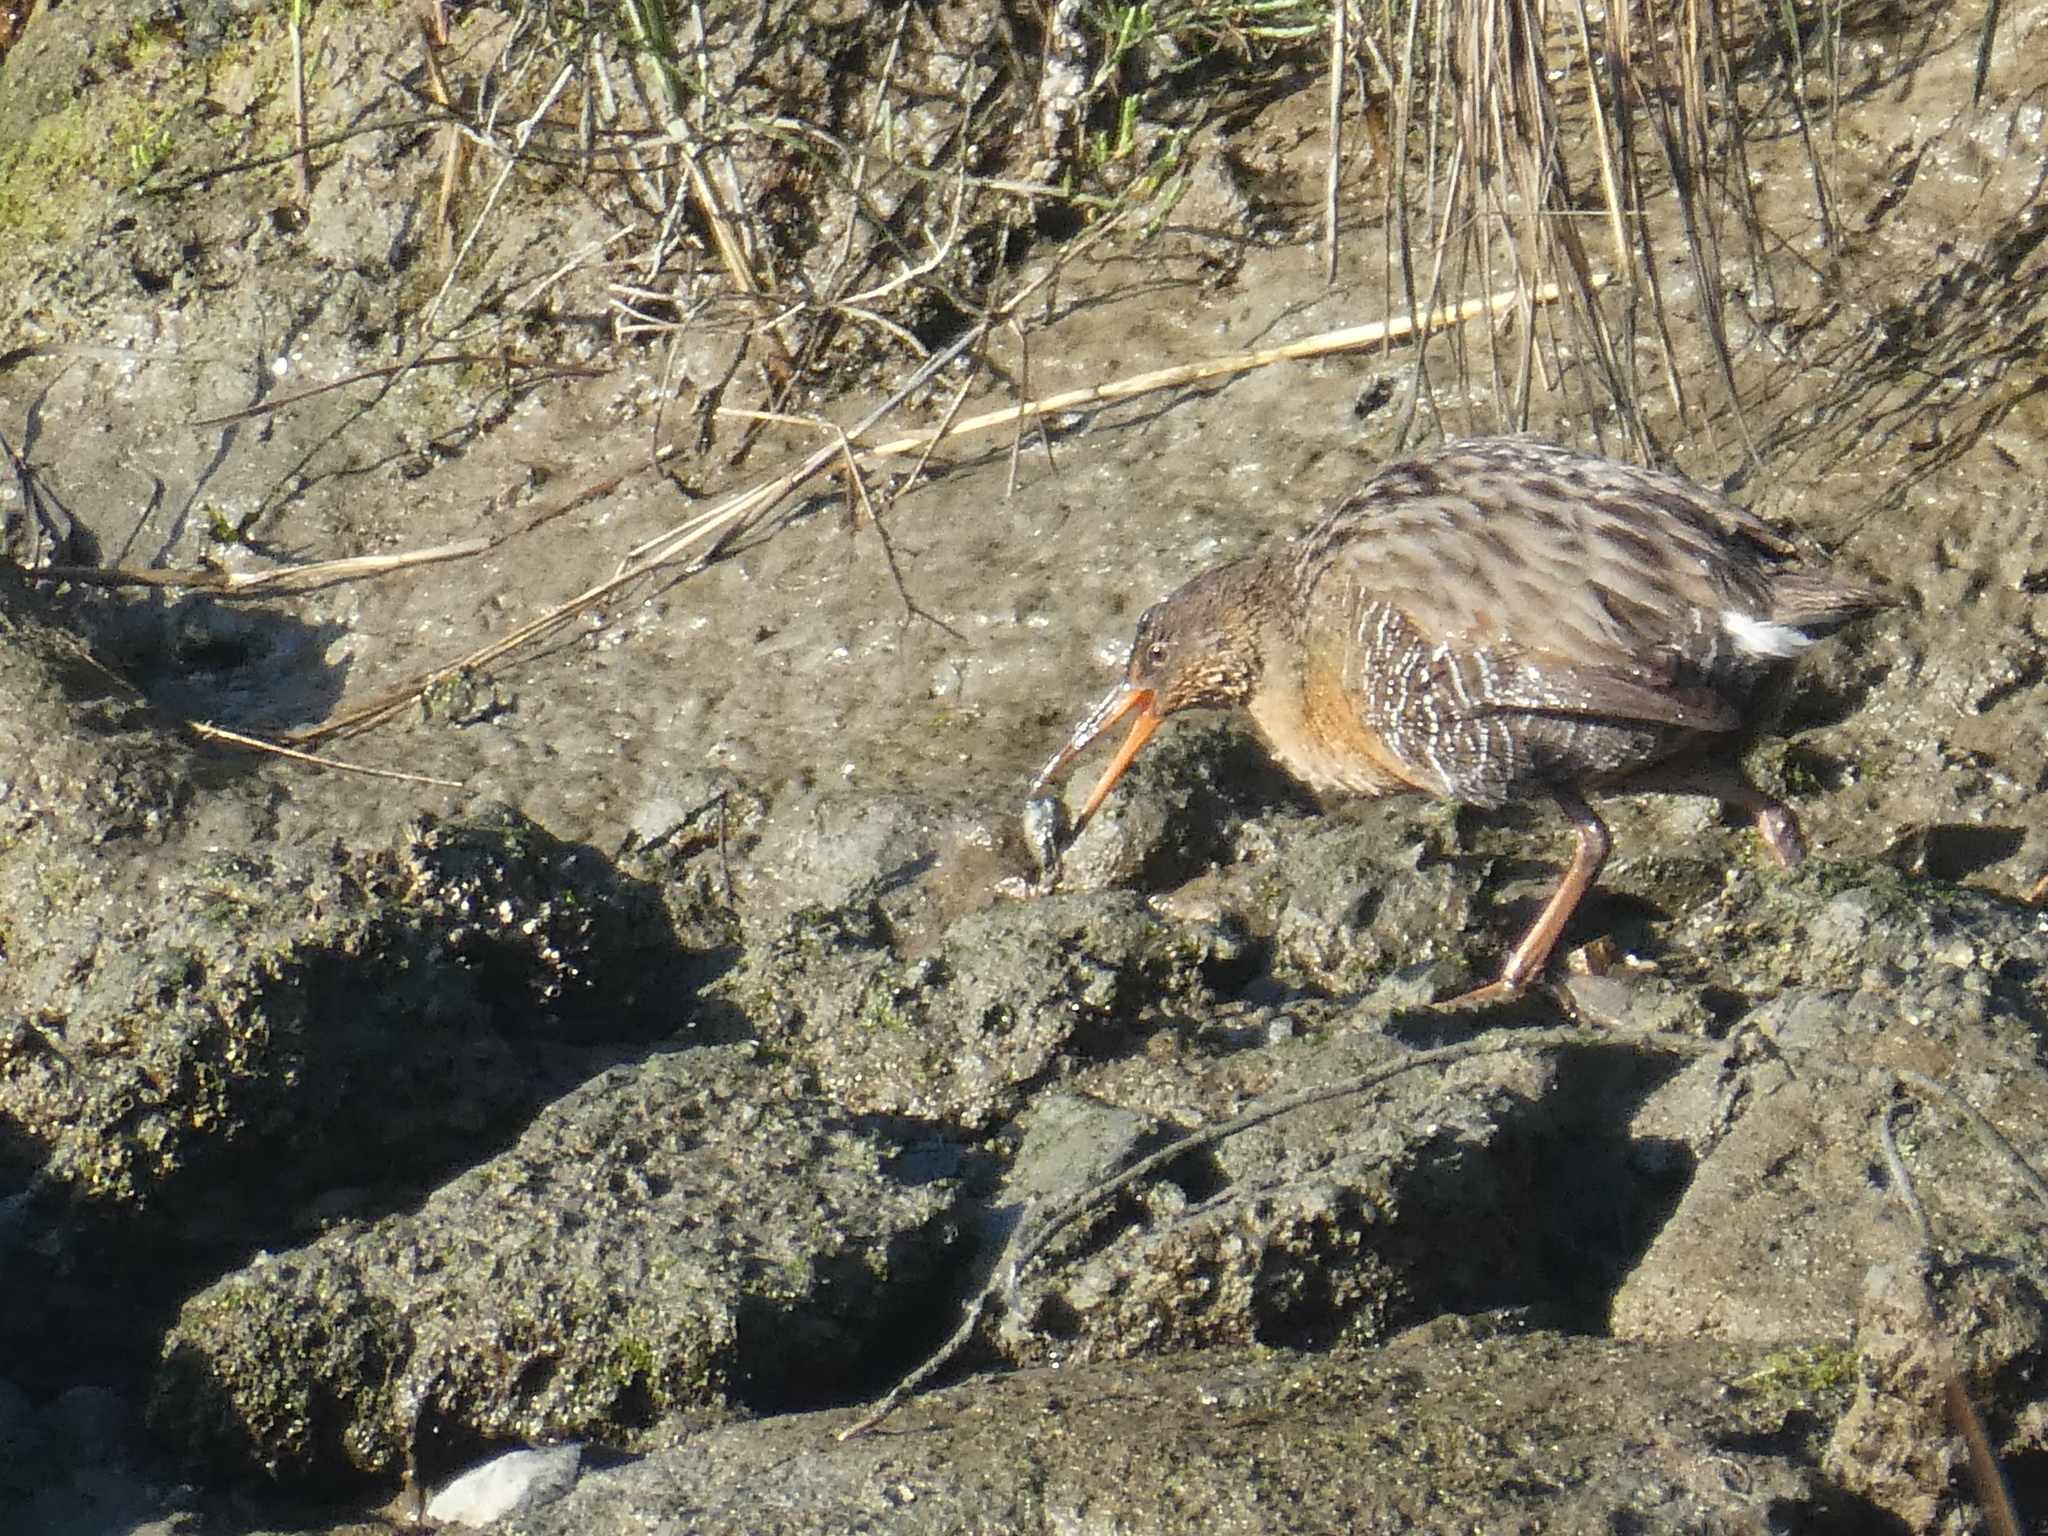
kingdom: Animalia
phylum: Chordata
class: Aves
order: Gruiformes
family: Rallidae
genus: Rallus
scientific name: Rallus obsoletus
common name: Ridgway's rail
